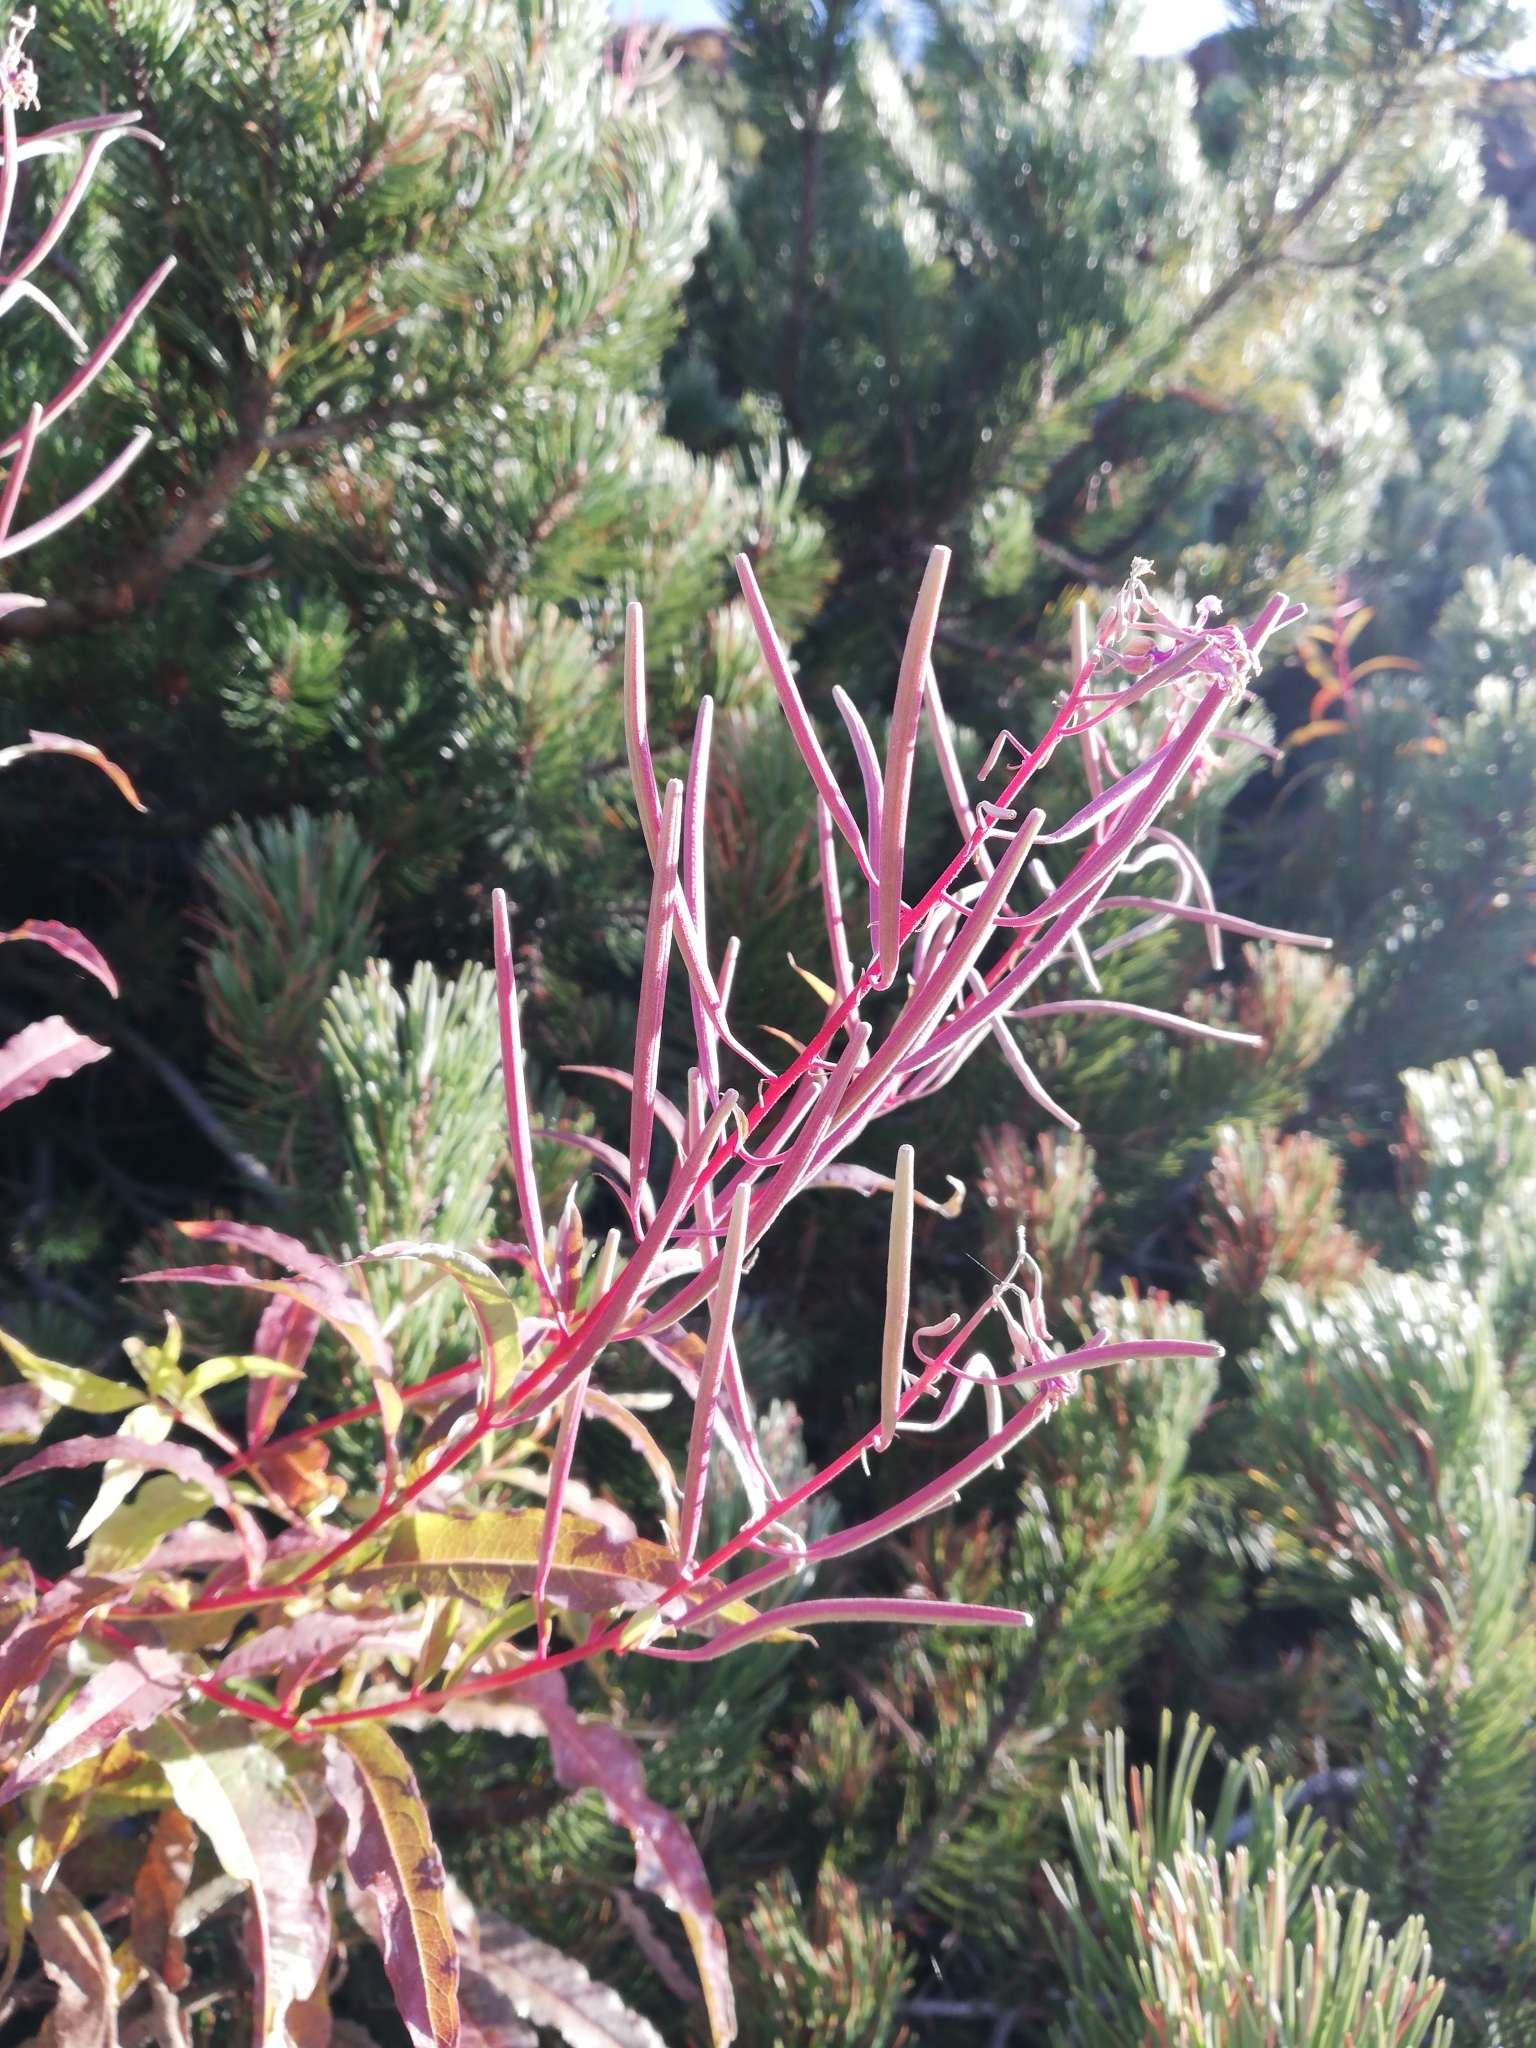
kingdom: Plantae
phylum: Tracheophyta
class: Magnoliopsida
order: Myrtales
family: Onagraceae
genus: Chamaenerion
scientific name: Chamaenerion angustifolium
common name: Fireweed
